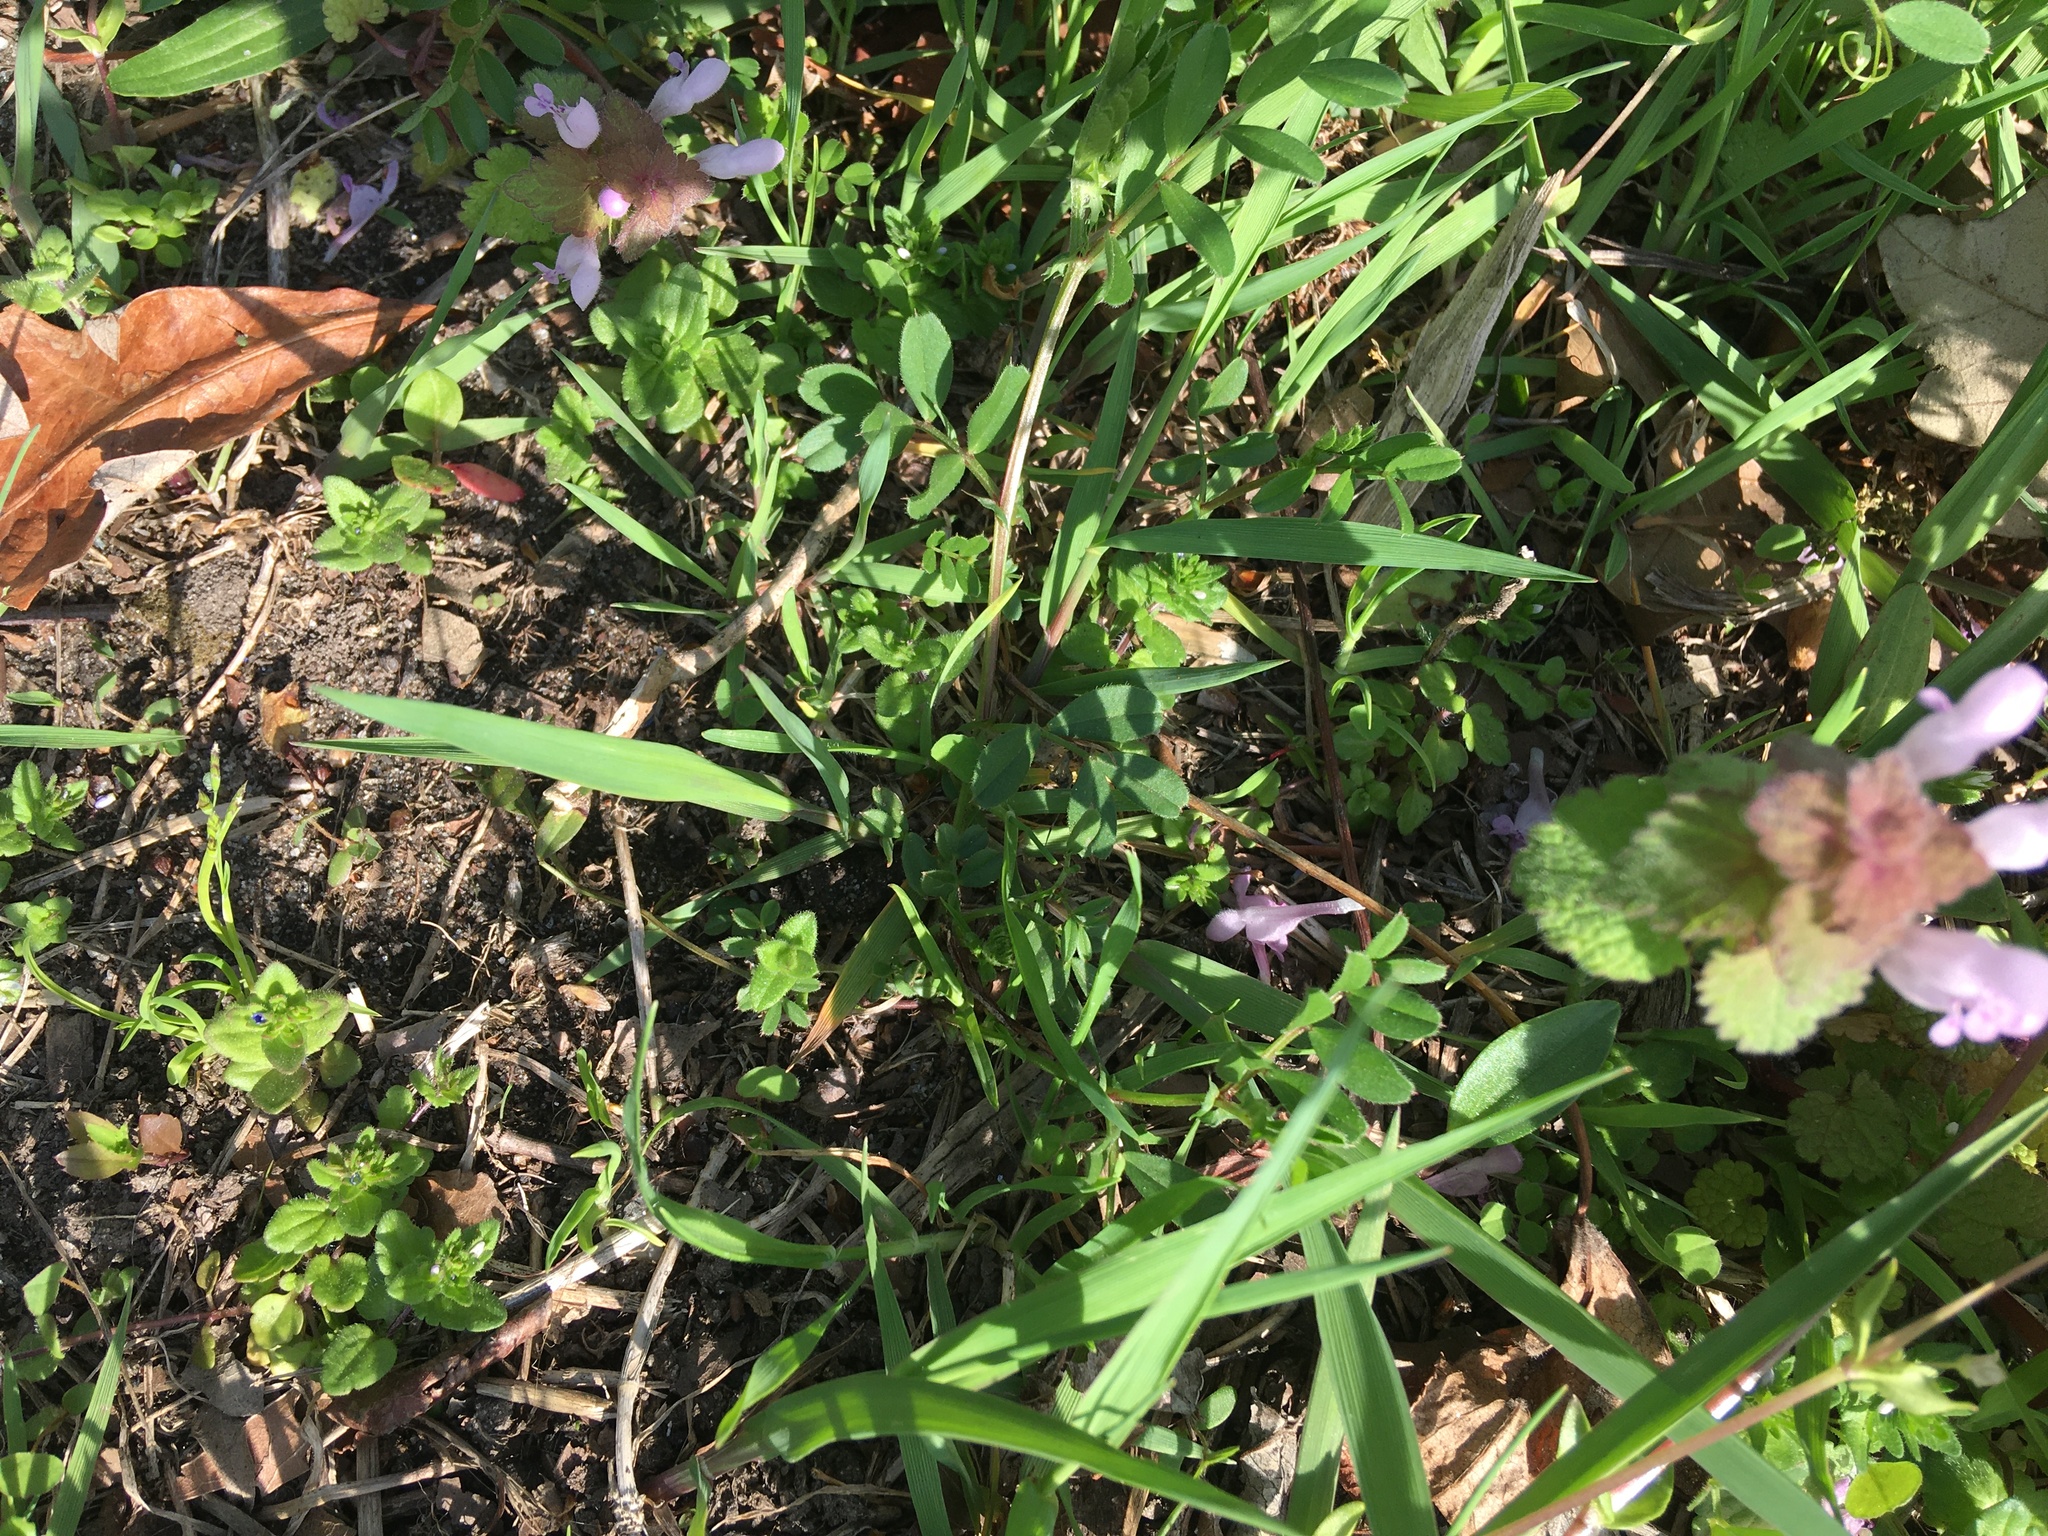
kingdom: Plantae
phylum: Tracheophyta
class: Magnoliopsida
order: Lamiales
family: Lamiaceae
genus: Lamium
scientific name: Lamium purpureum
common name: Red dead-nettle
